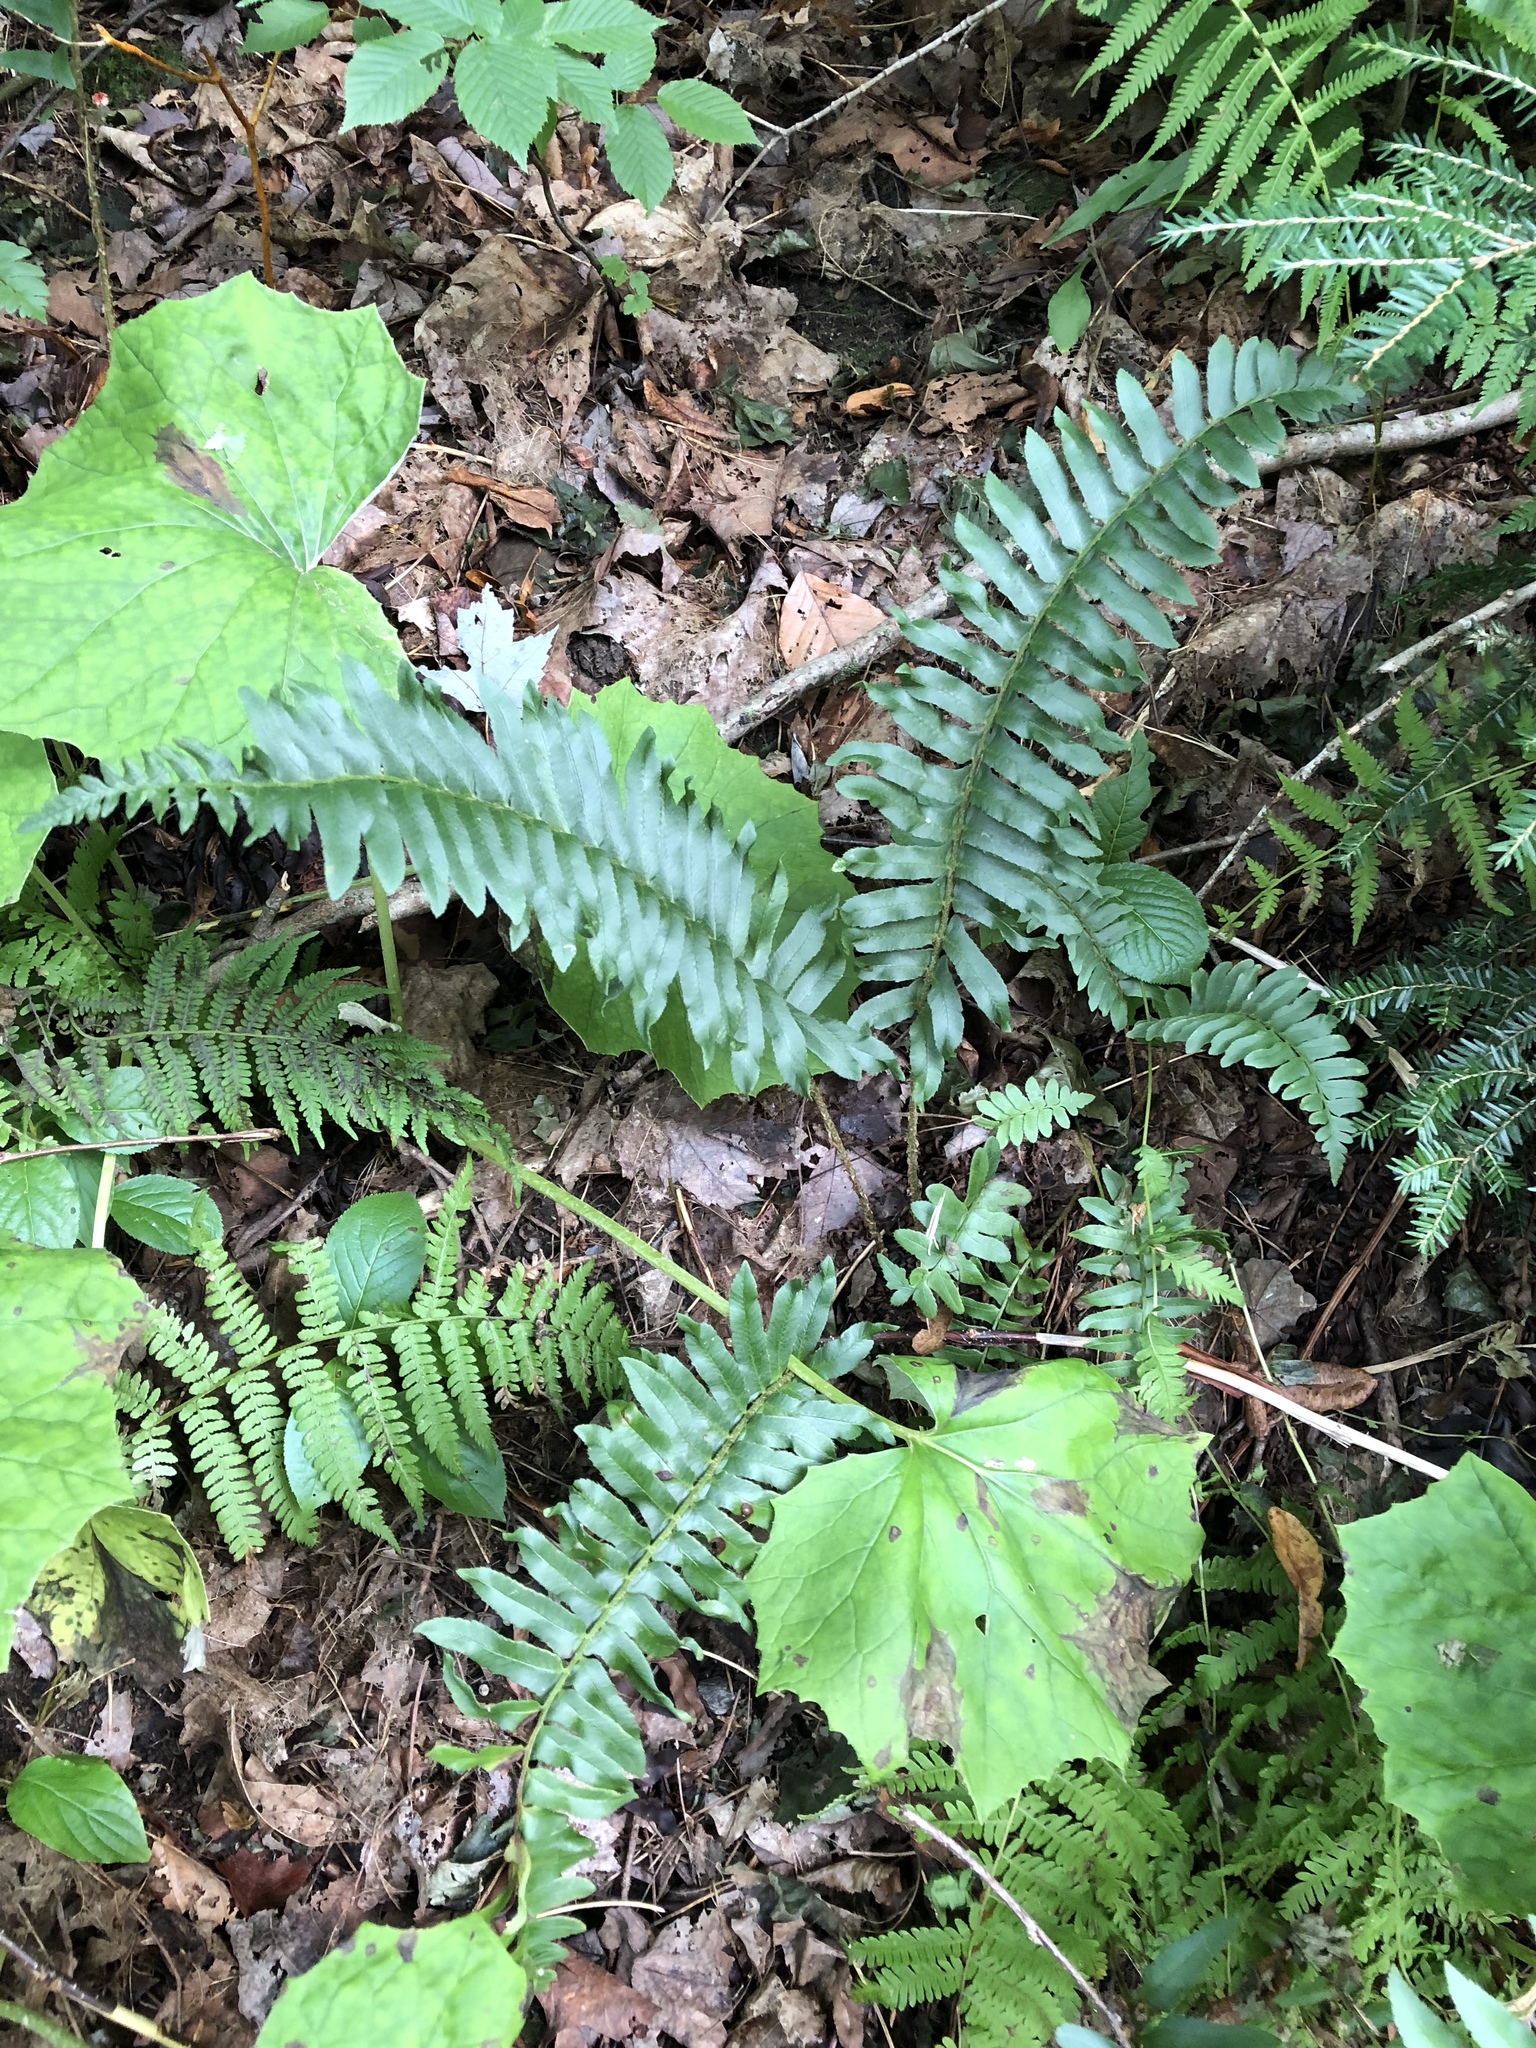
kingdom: Plantae
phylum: Tracheophyta
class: Polypodiopsida
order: Polypodiales
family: Dryopteridaceae
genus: Polystichum
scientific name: Polystichum acrostichoides
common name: Christmas fern
